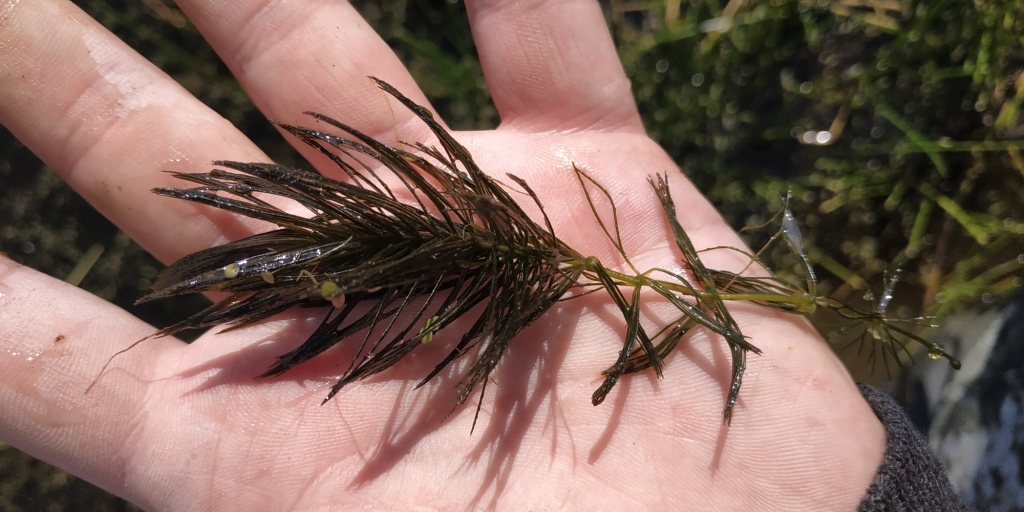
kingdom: Plantae
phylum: Tracheophyta
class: Magnoliopsida
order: Ceratophyllales
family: Ceratophyllaceae
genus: Ceratophyllum
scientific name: Ceratophyllum demersum
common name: Rigid hornwort
